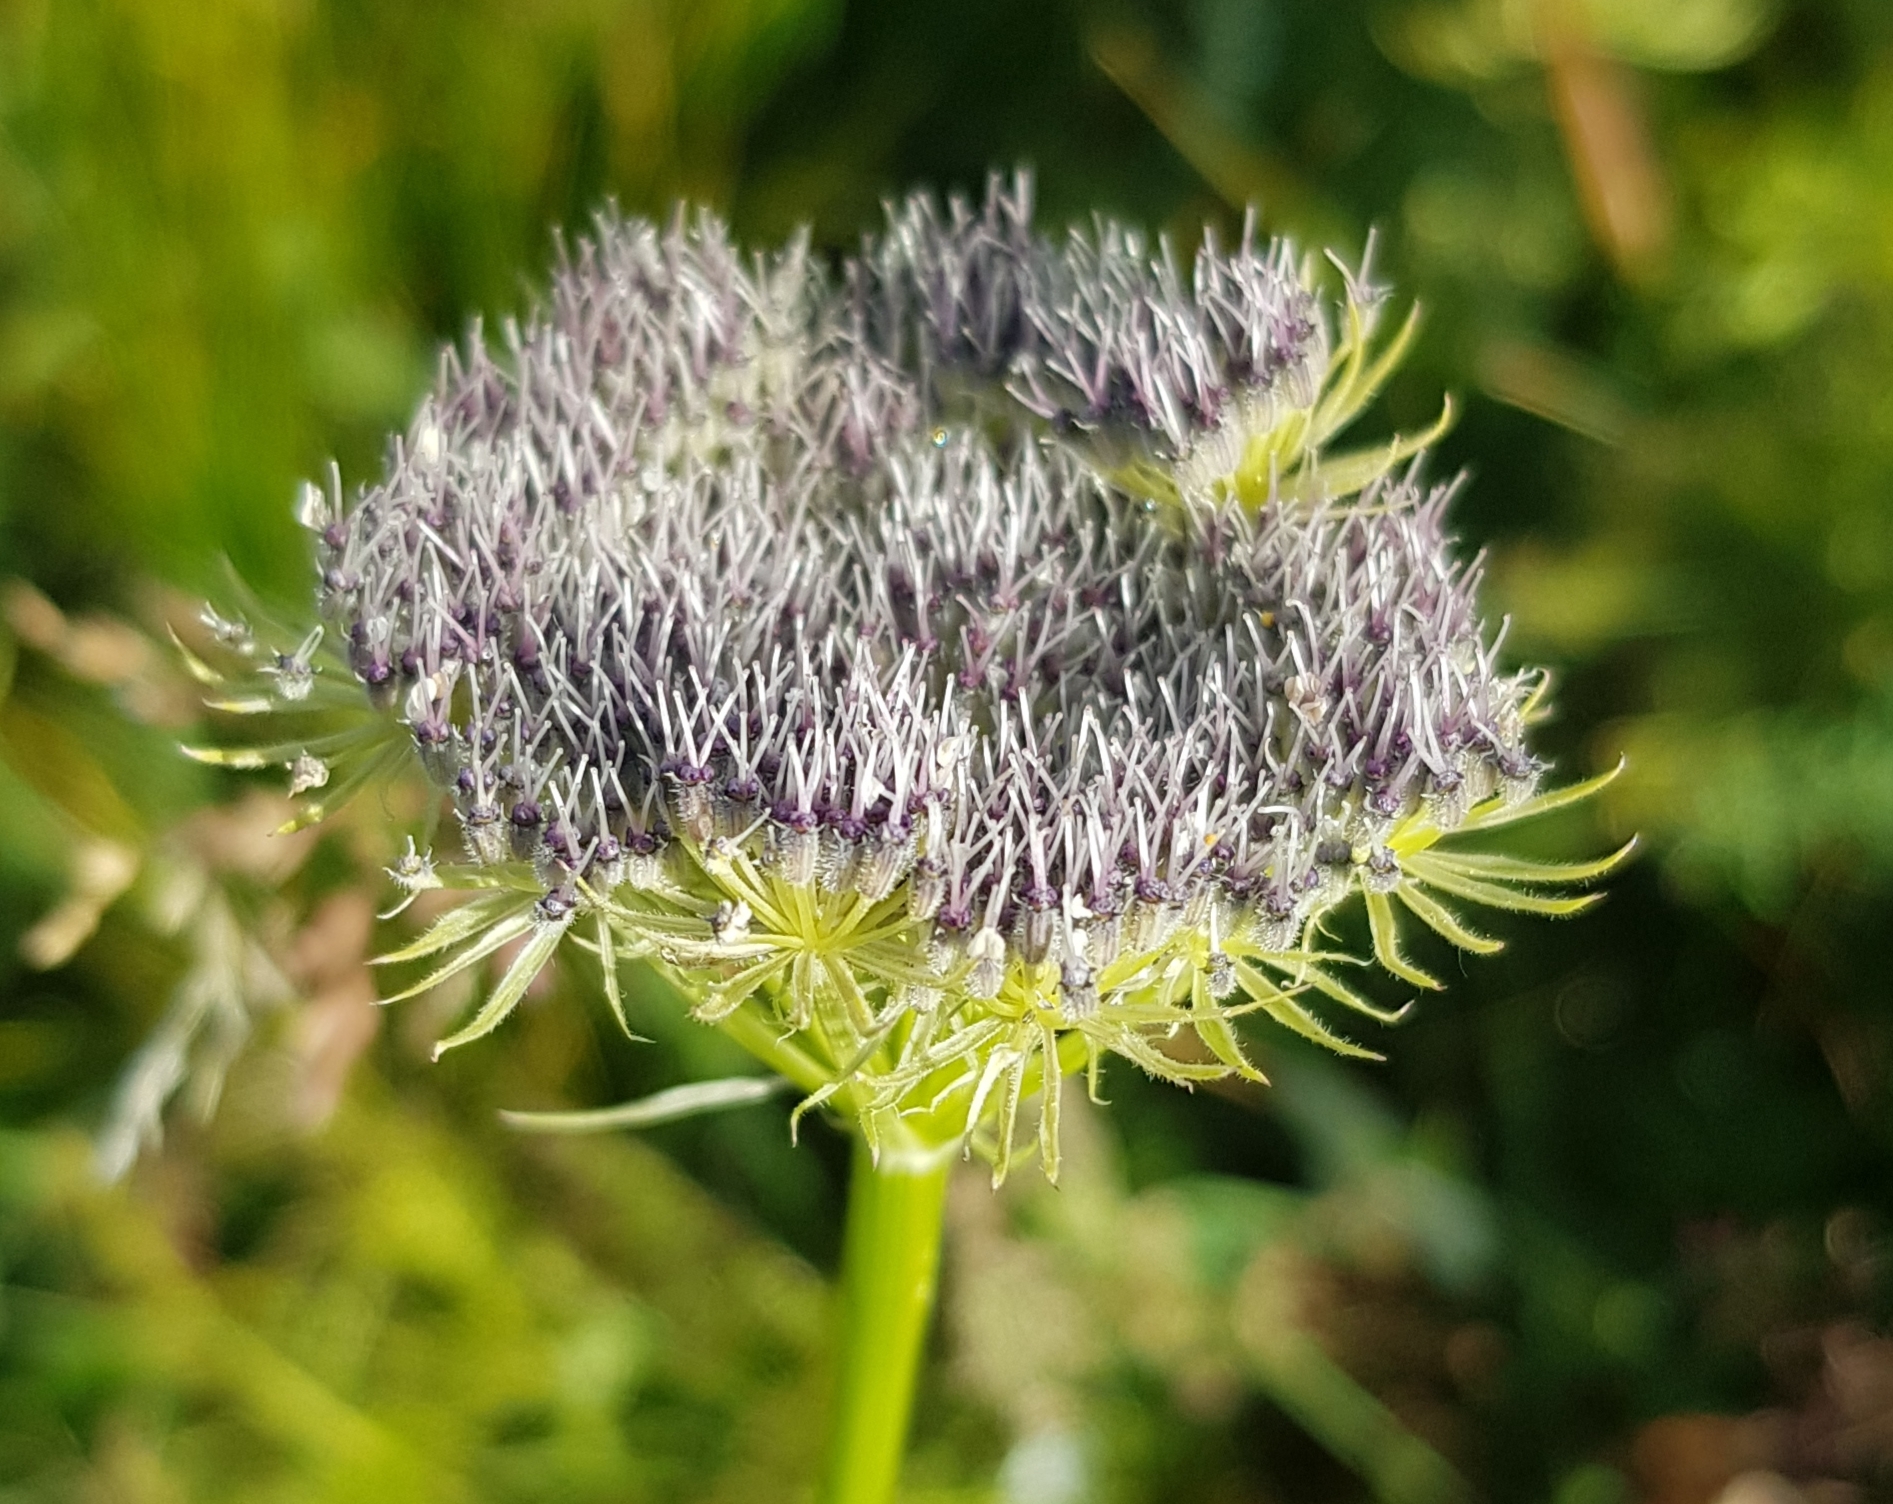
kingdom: Plantae
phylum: Tracheophyta
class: Magnoliopsida
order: Apiales
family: Apiaceae
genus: Seseli
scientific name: Seseli condensatum
